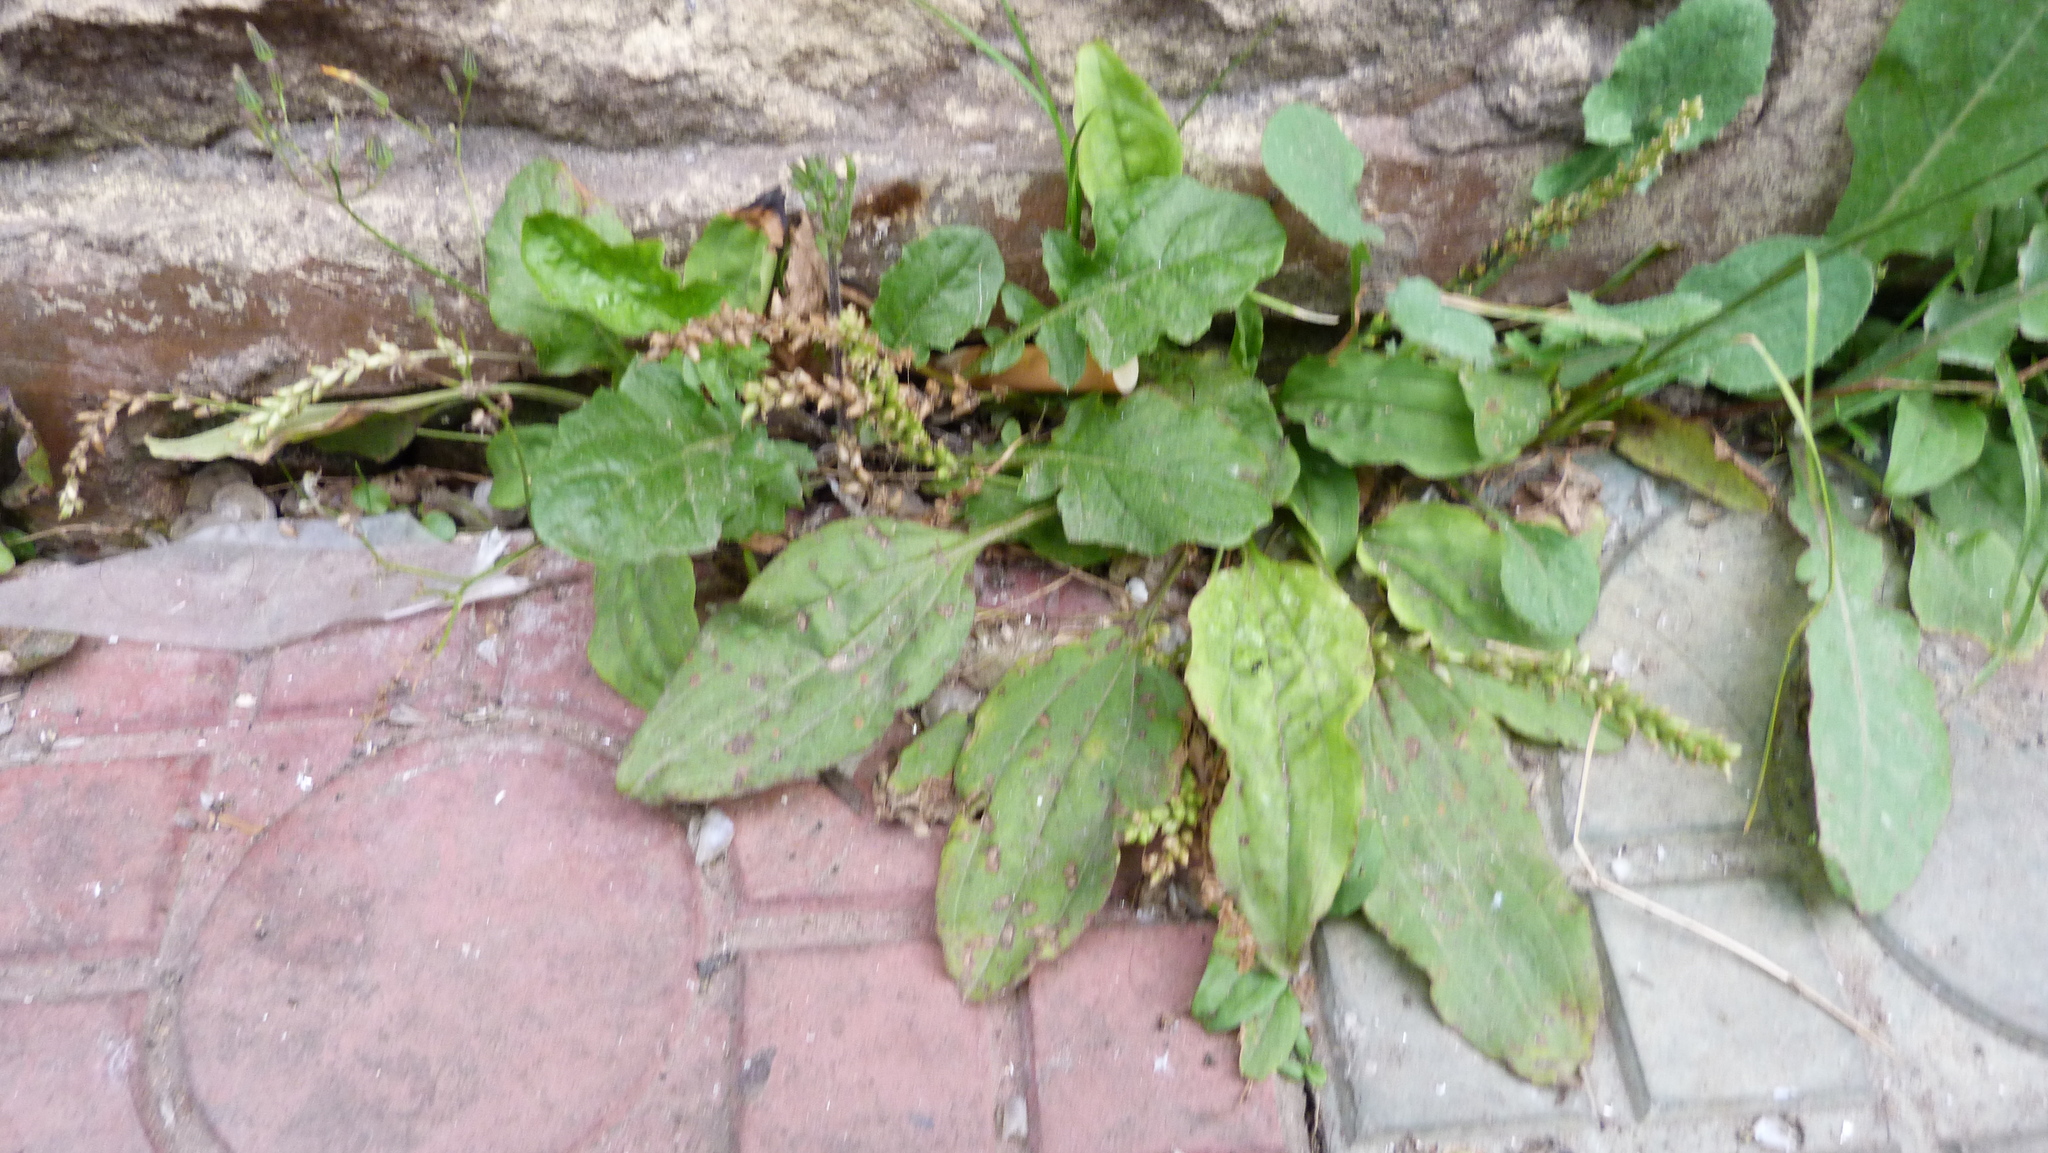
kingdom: Plantae
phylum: Tracheophyta
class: Magnoliopsida
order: Lamiales
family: Plantaginaceae
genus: Plantago
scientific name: Plantago major
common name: Common plantain
